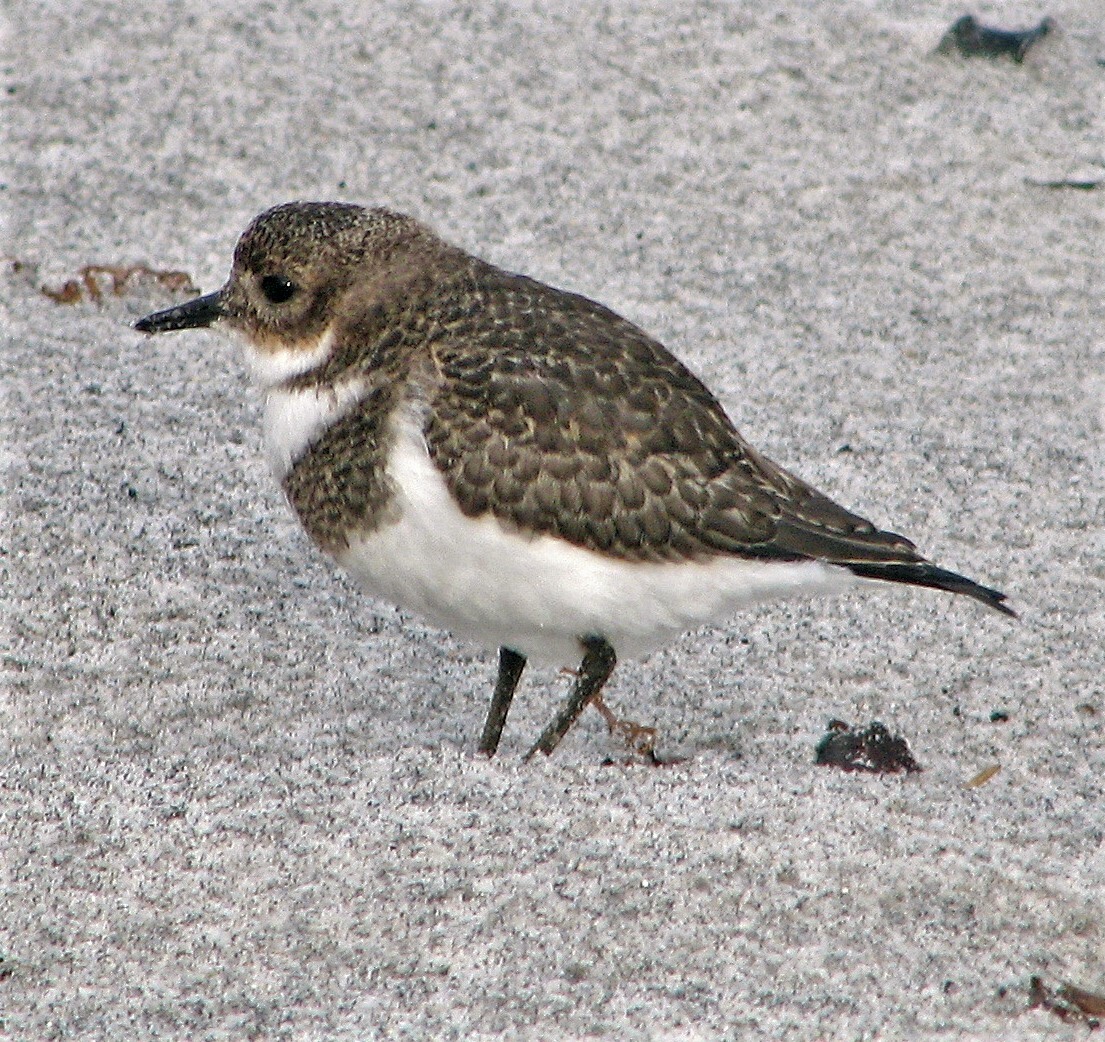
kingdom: Animalia
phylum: Chordata
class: Aves
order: Charadriiformes
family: Charadriidae
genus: Anarhynchus
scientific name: Anarhynchus
